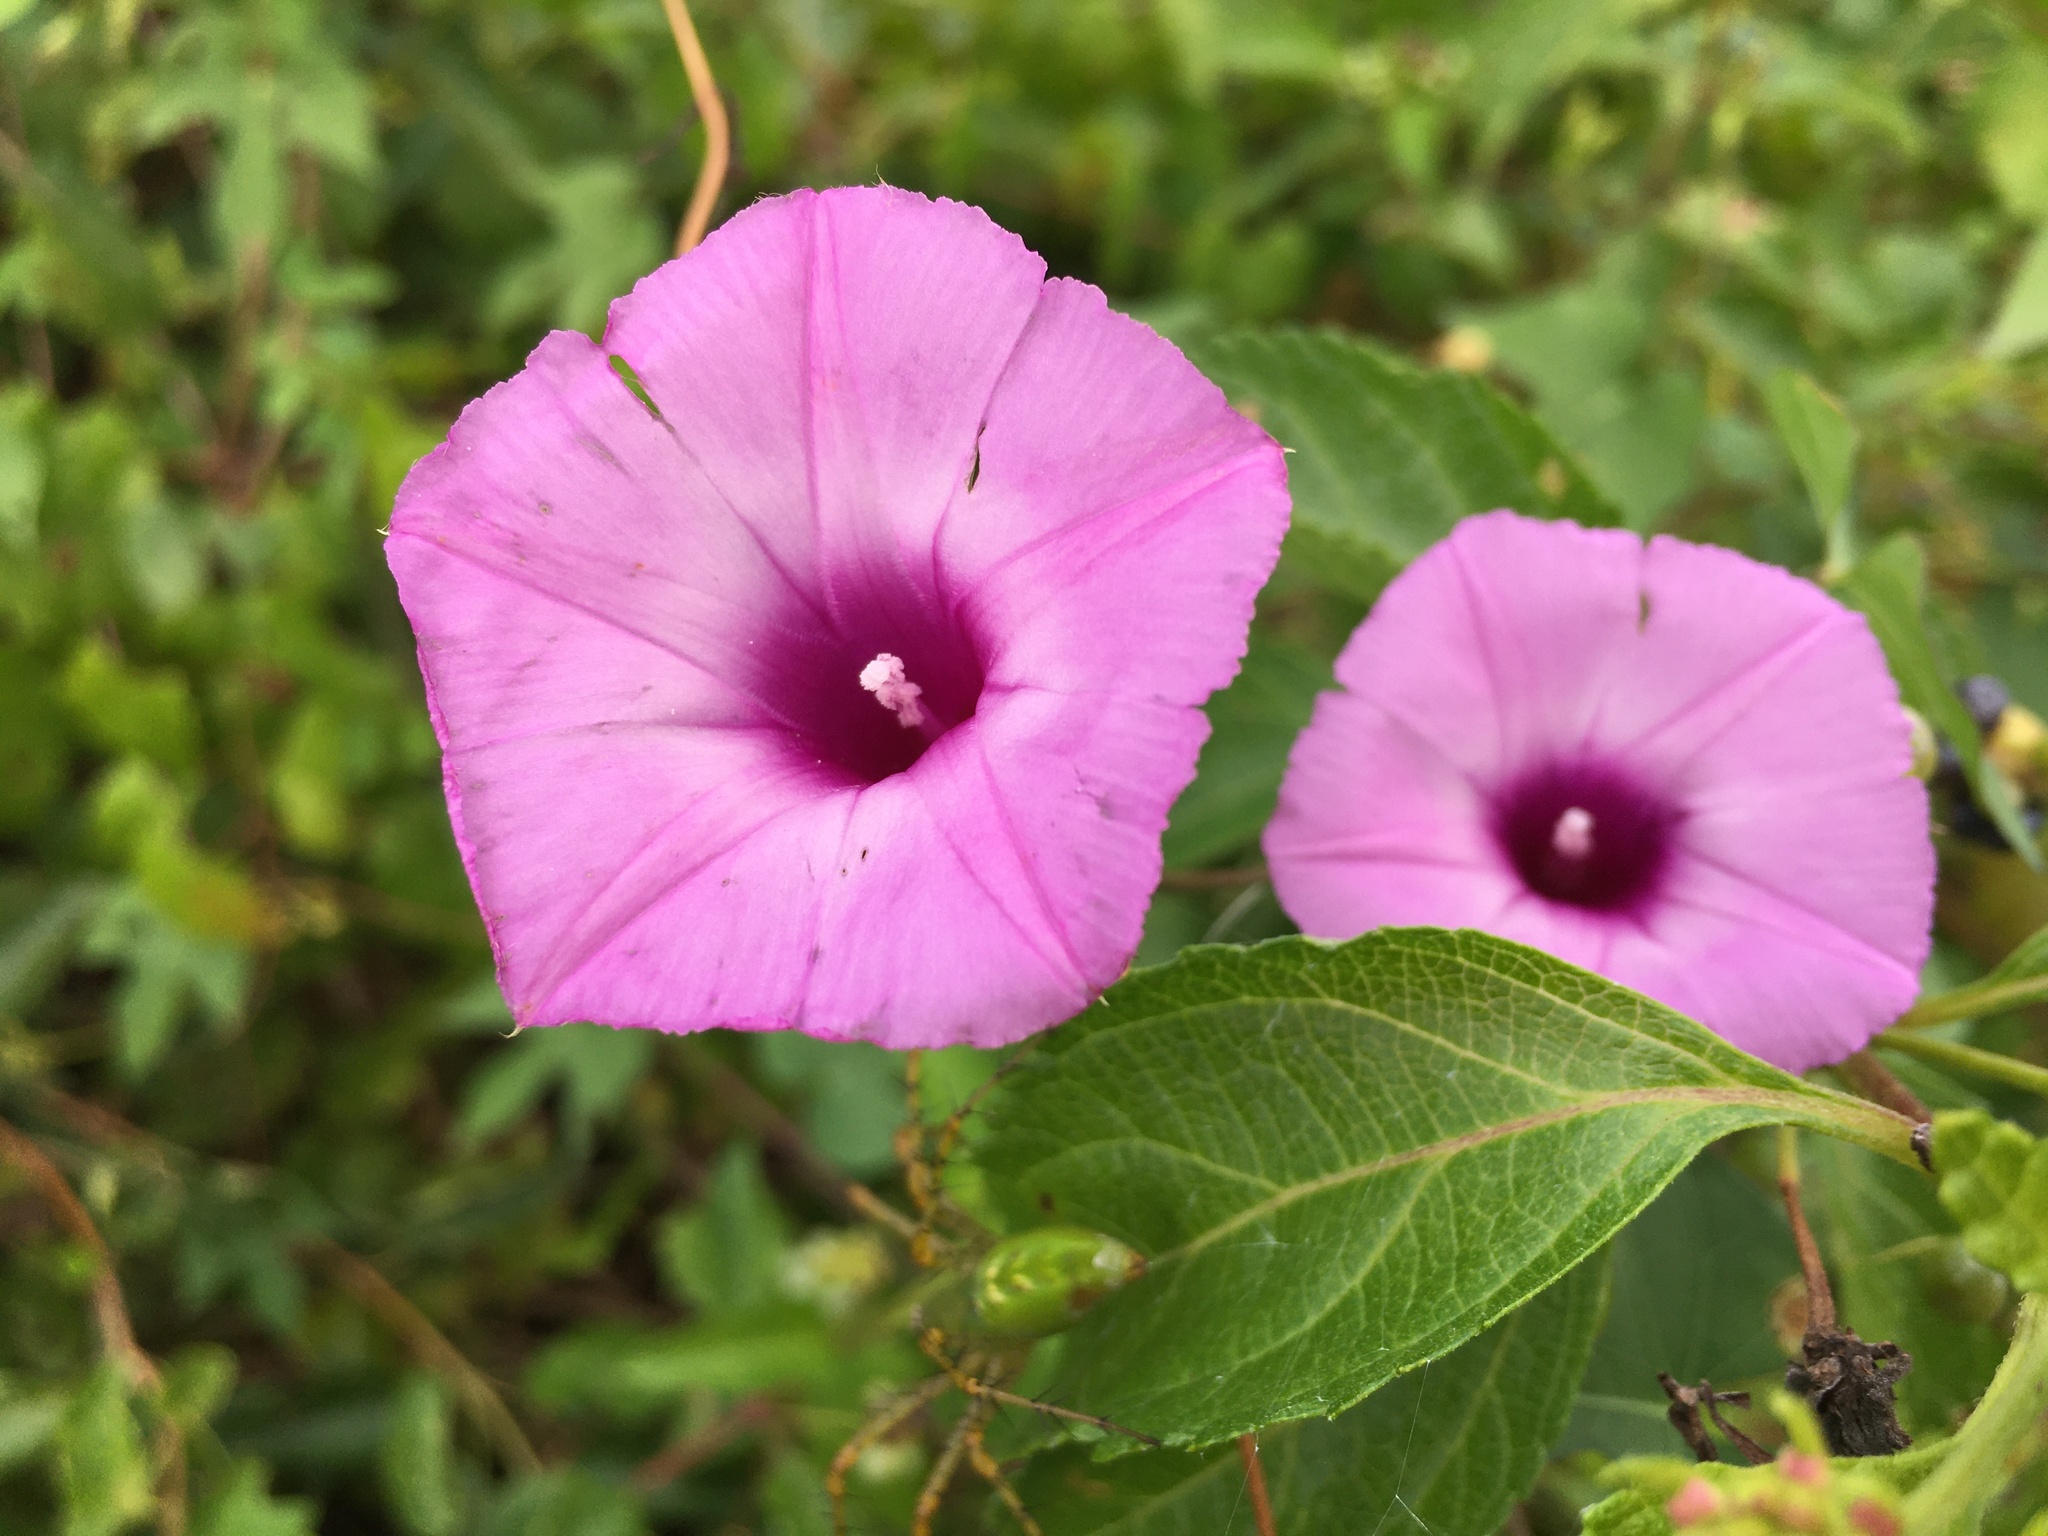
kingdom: Plantae
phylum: Tracheophyta
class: Magnoliopsida
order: Solanales
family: Convolvulaceae
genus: Ipomoea
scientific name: Ipomoea cordatotriloba
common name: Cotton morning glory
